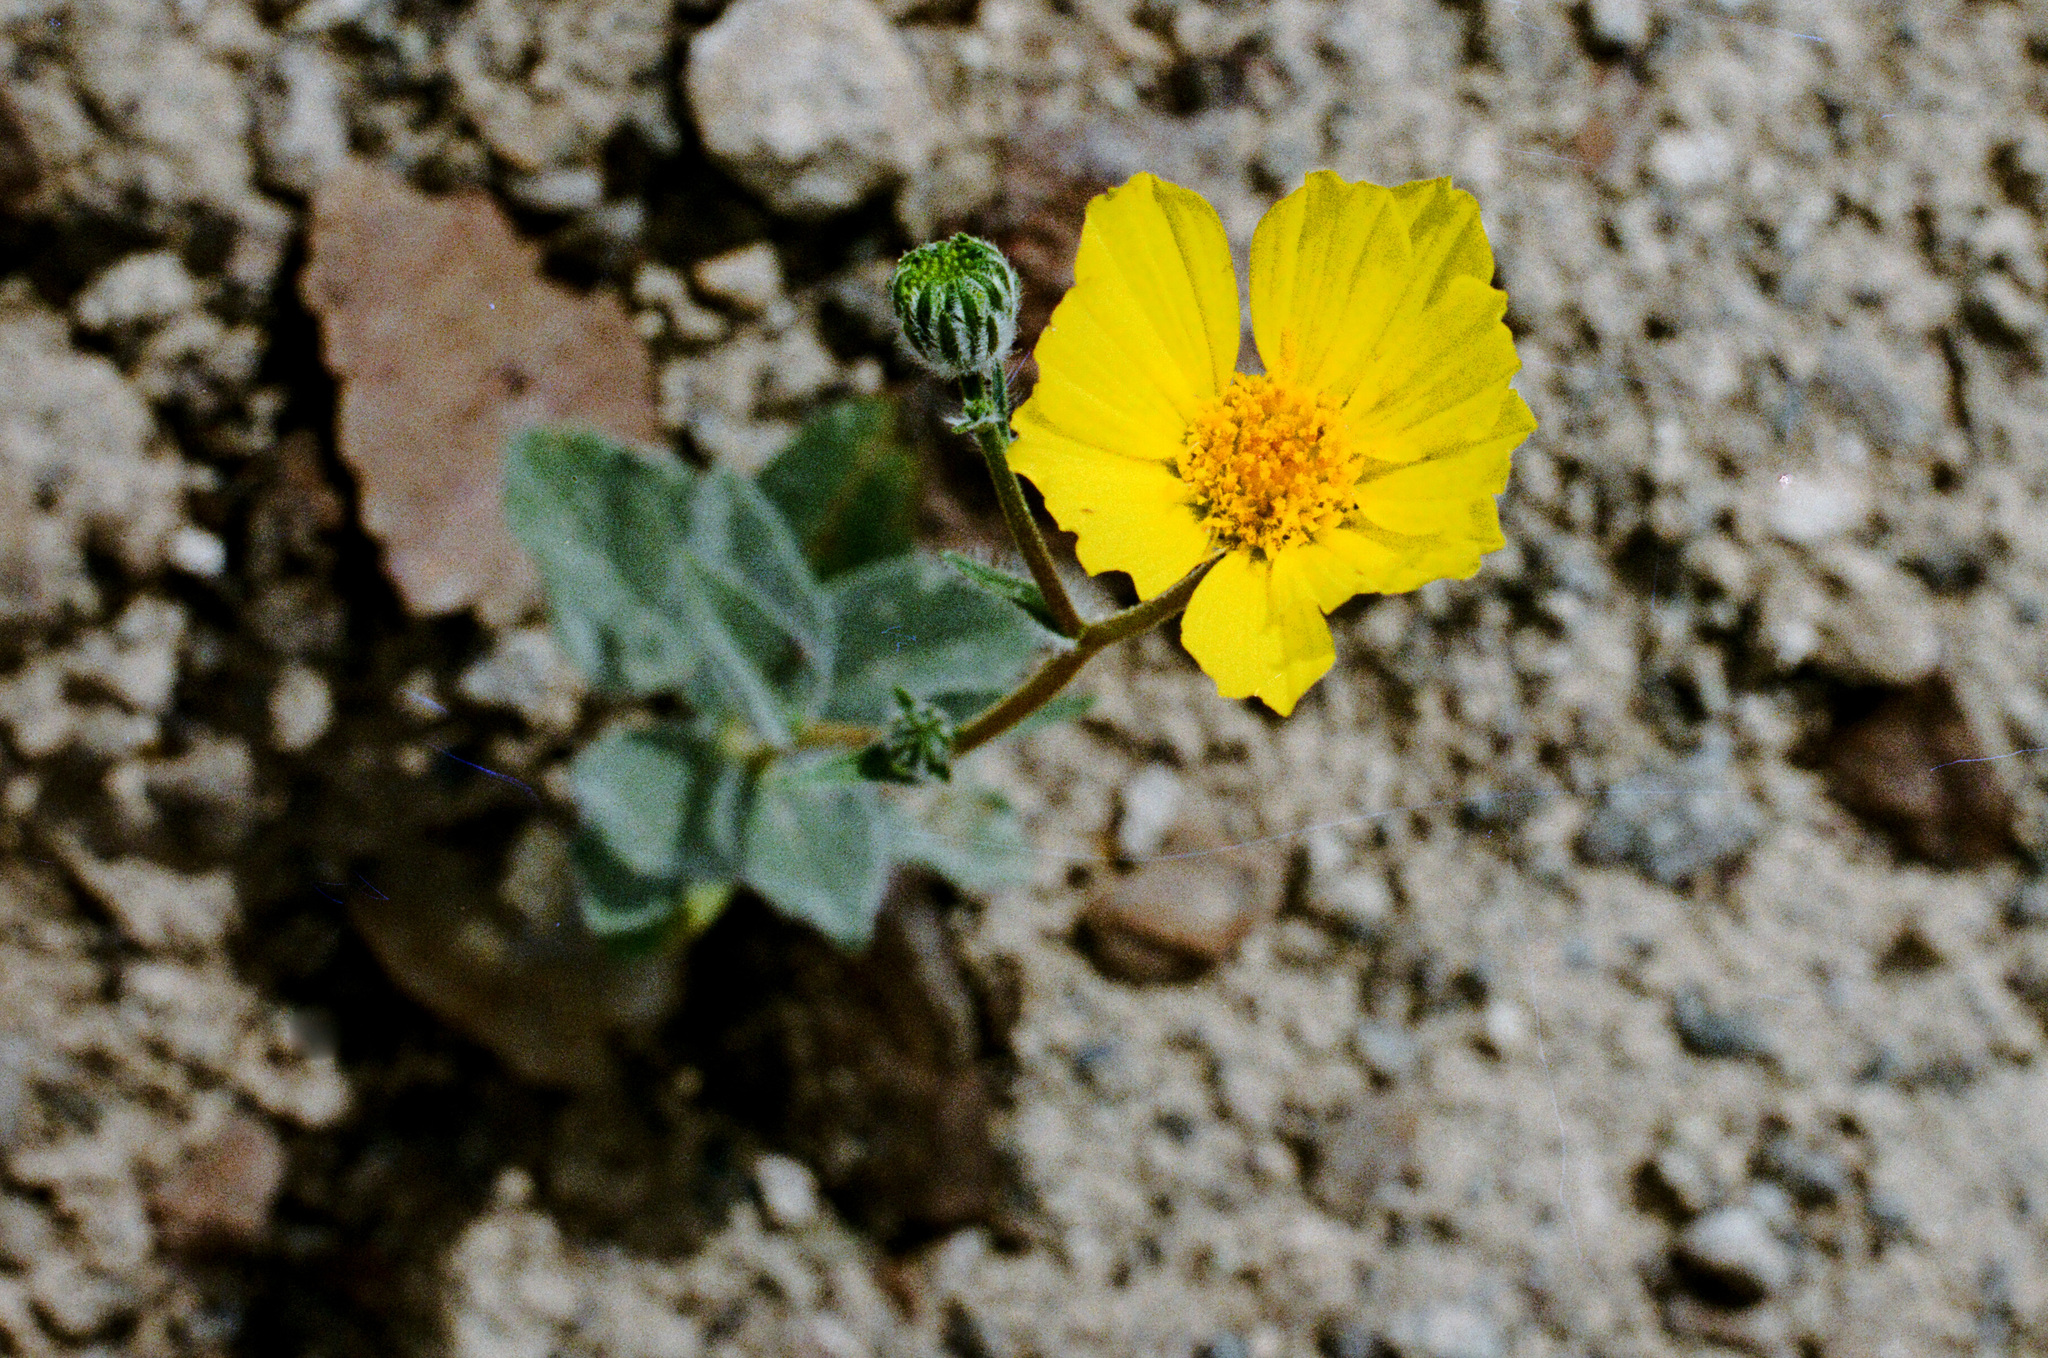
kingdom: Plantae
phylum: Tracheophyta
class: Magnoliopsida
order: Asterales
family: Asteraceae
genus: Geraea
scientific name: Geraea canescens
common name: Desert-gold
